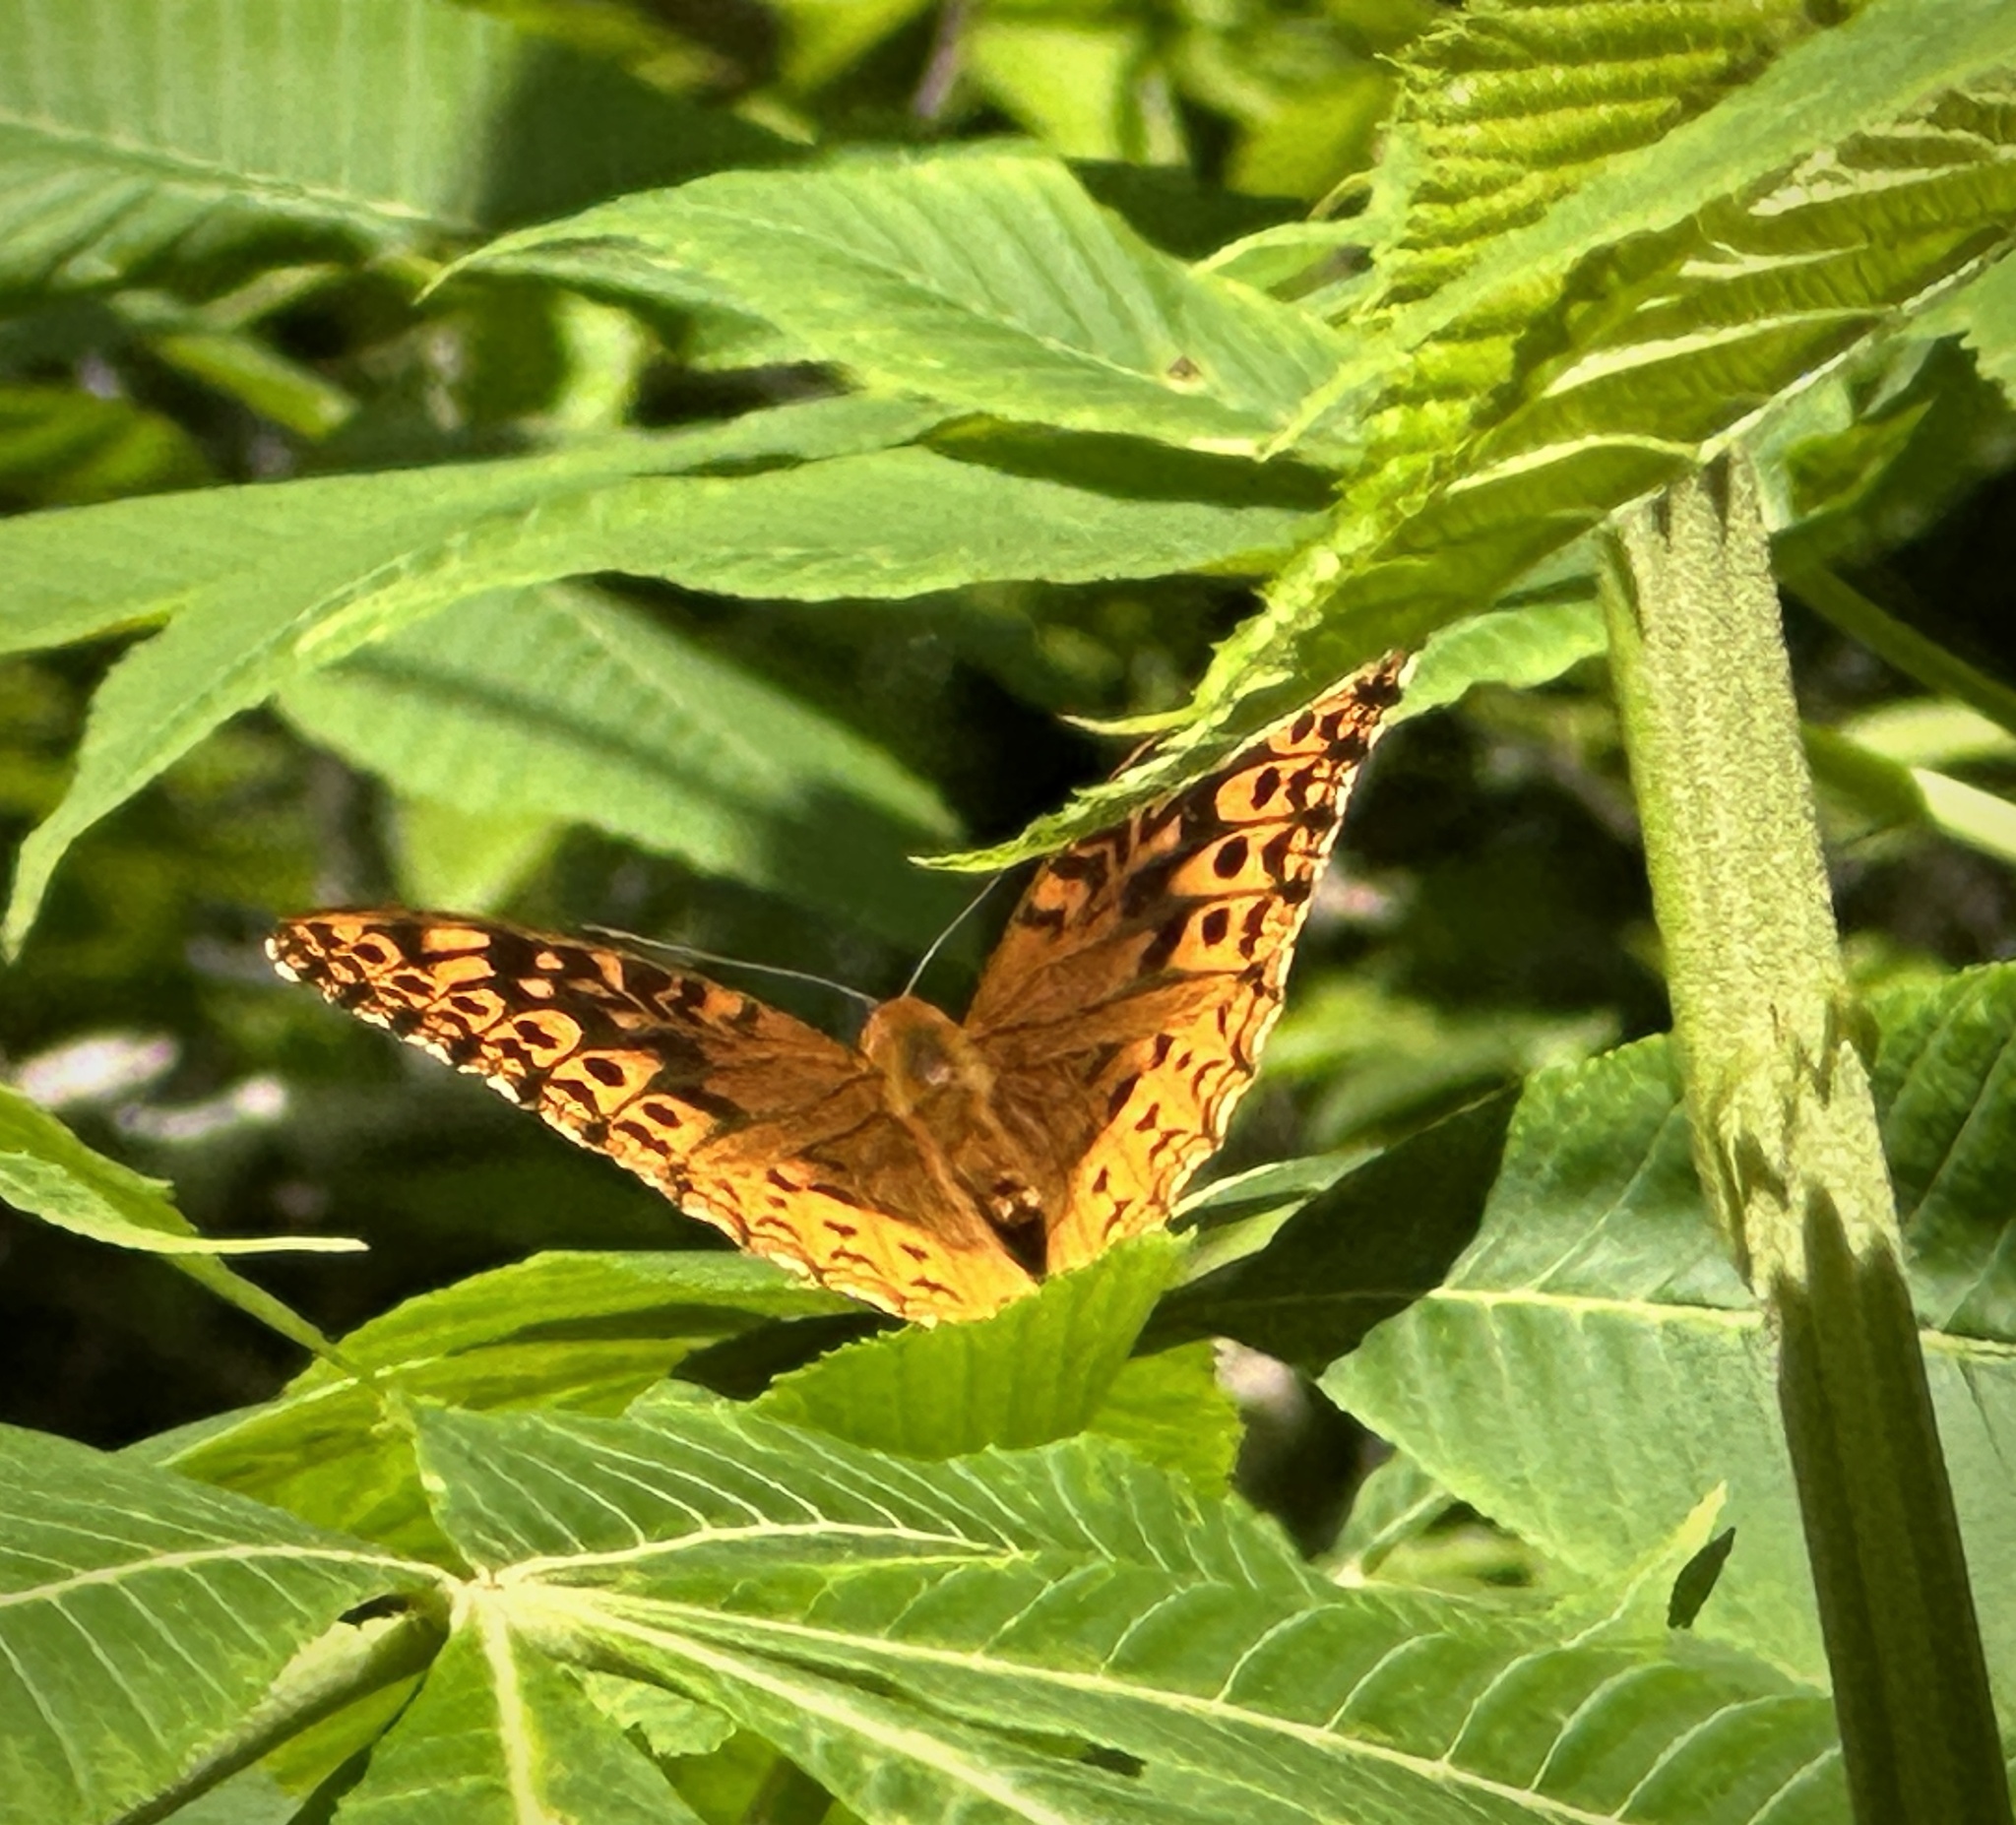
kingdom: Animalia
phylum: Arthropoda
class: Insecta
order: Lepidoptera
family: Nymphalidae
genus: Speyeria
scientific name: Speyeria cybele
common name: Great spangled fritillary
